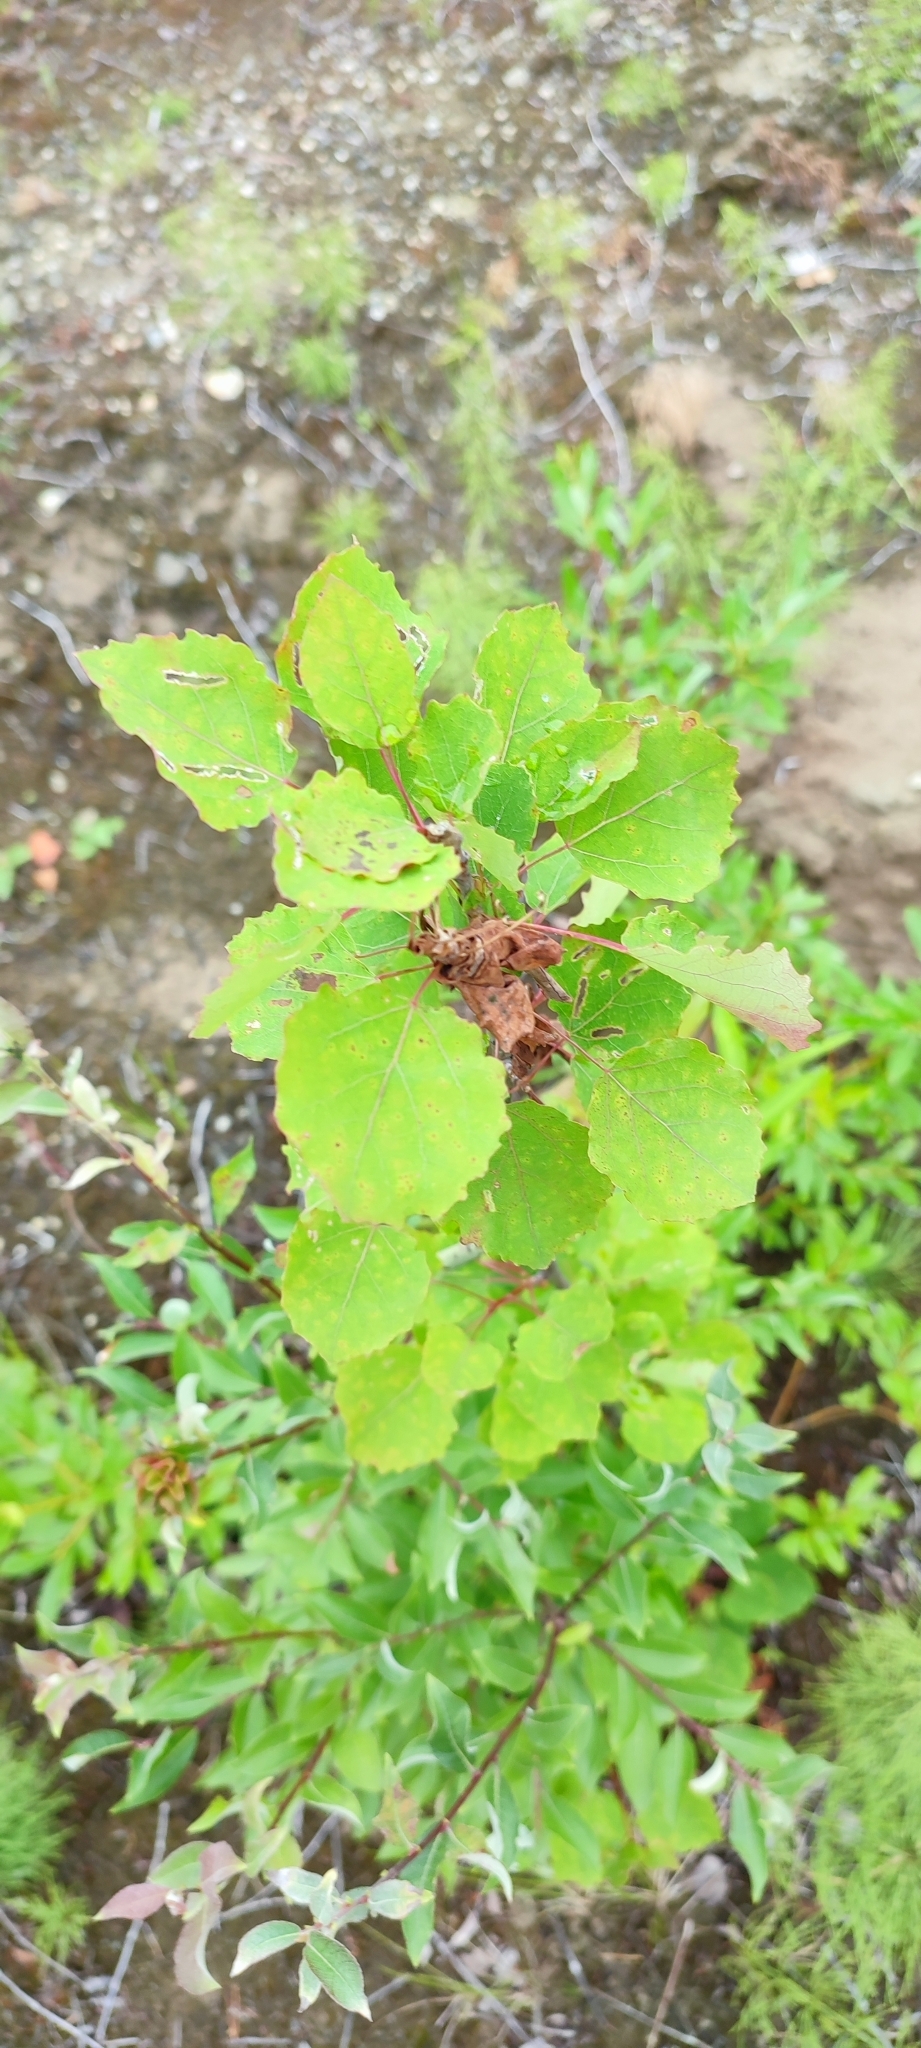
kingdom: Plantae
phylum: Tracheophyta
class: Magnoliopsida
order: Malpighiales
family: Salicaceae
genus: Populus
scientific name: Populus tremula
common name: European aspen
